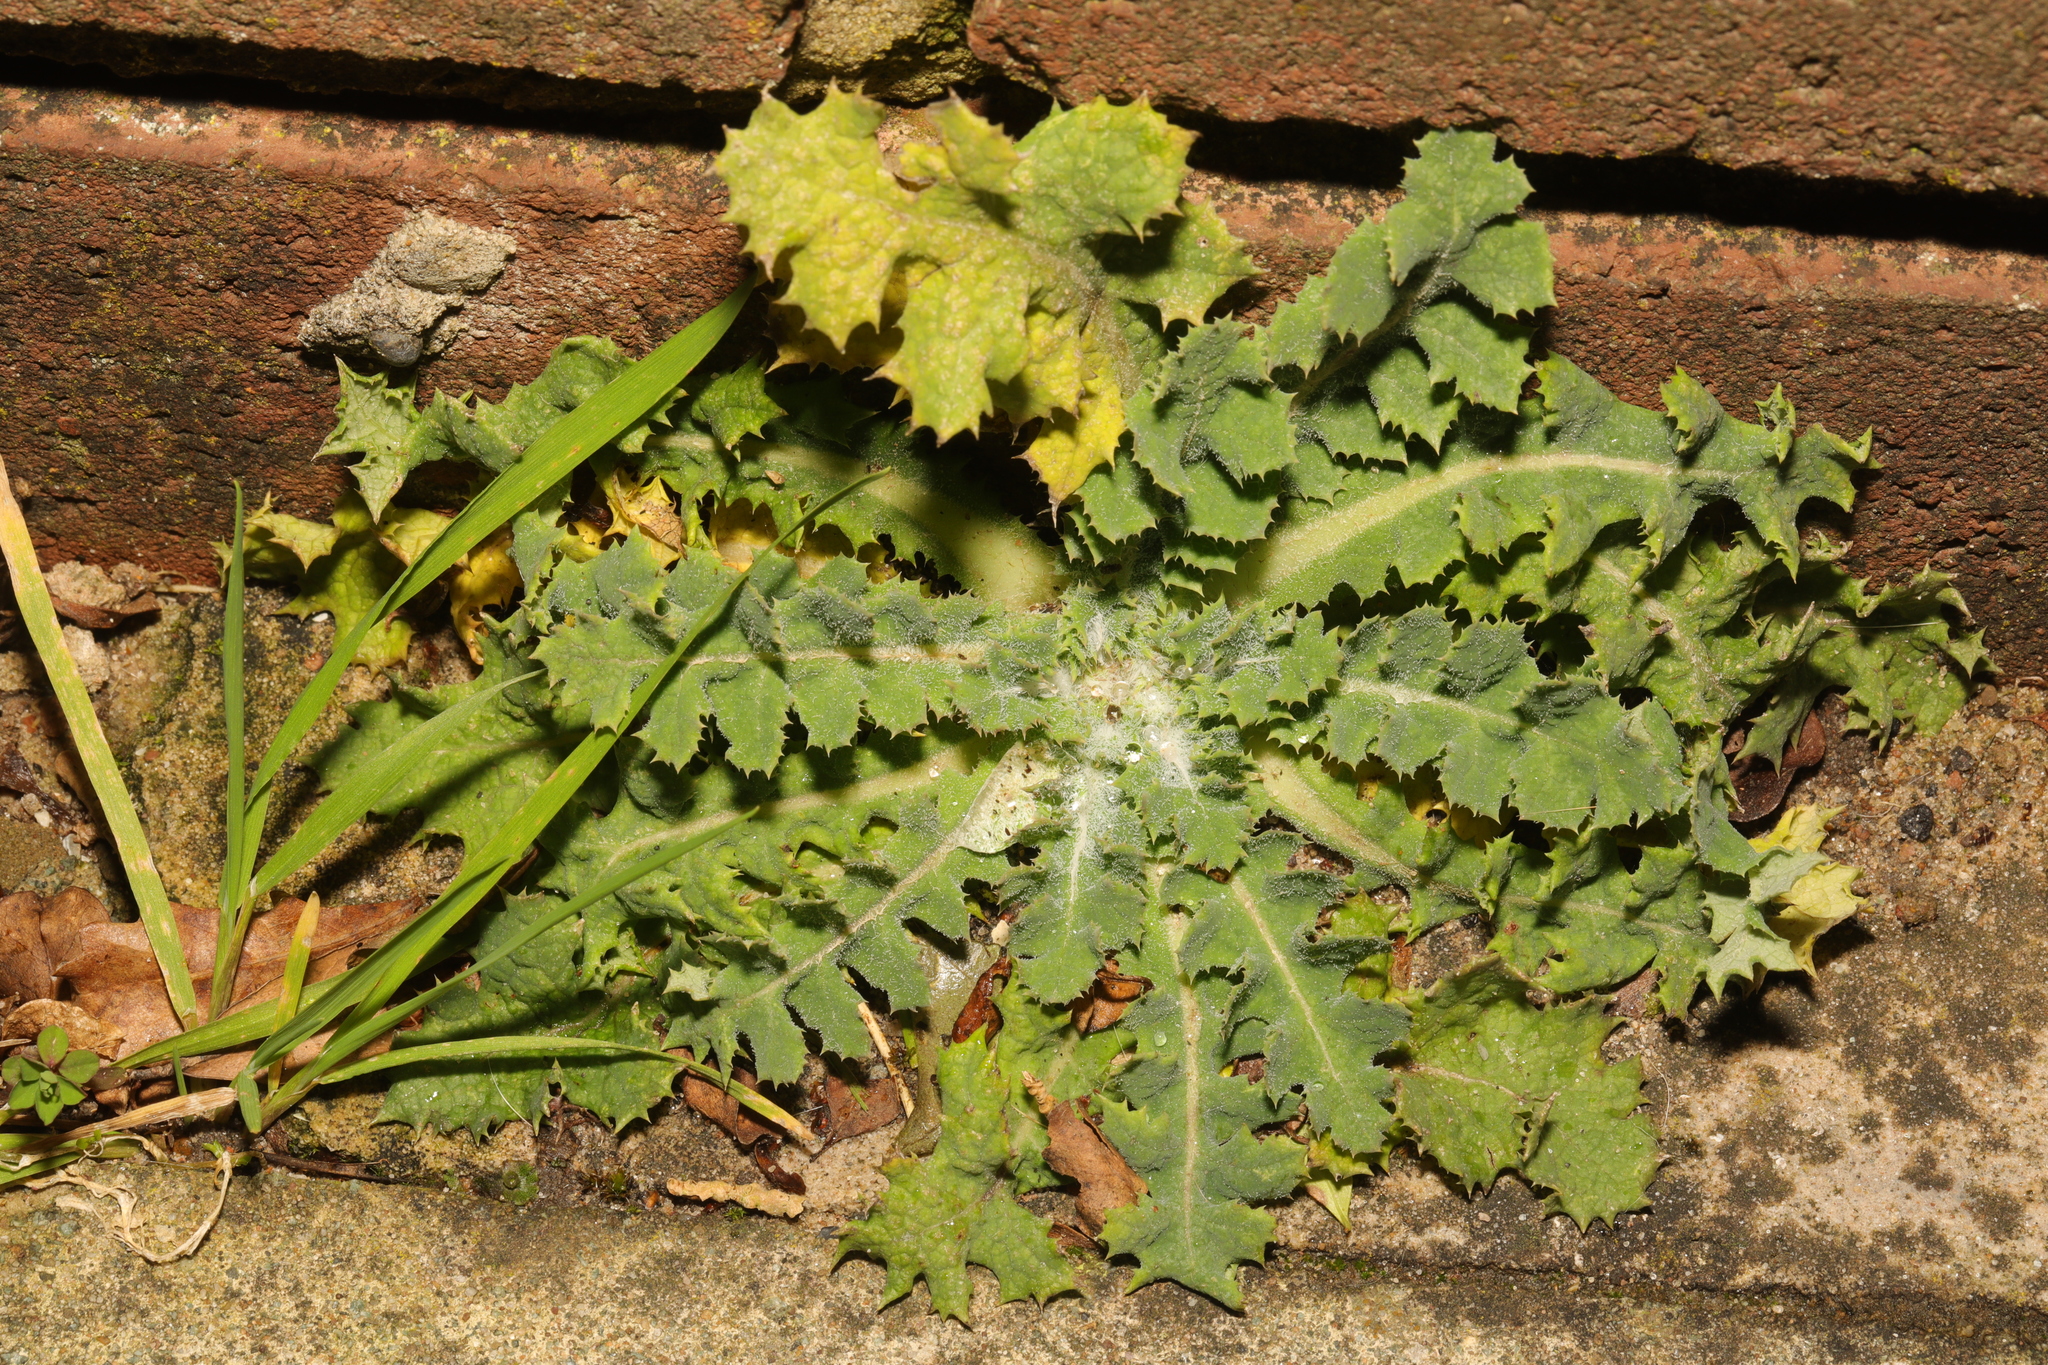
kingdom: Plantae
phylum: Tracheophyta
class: Magnoliopsida
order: Asterales
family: Asteraceae
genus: Sonchus
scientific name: Sonchus asper
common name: Prickly sow-thistle
